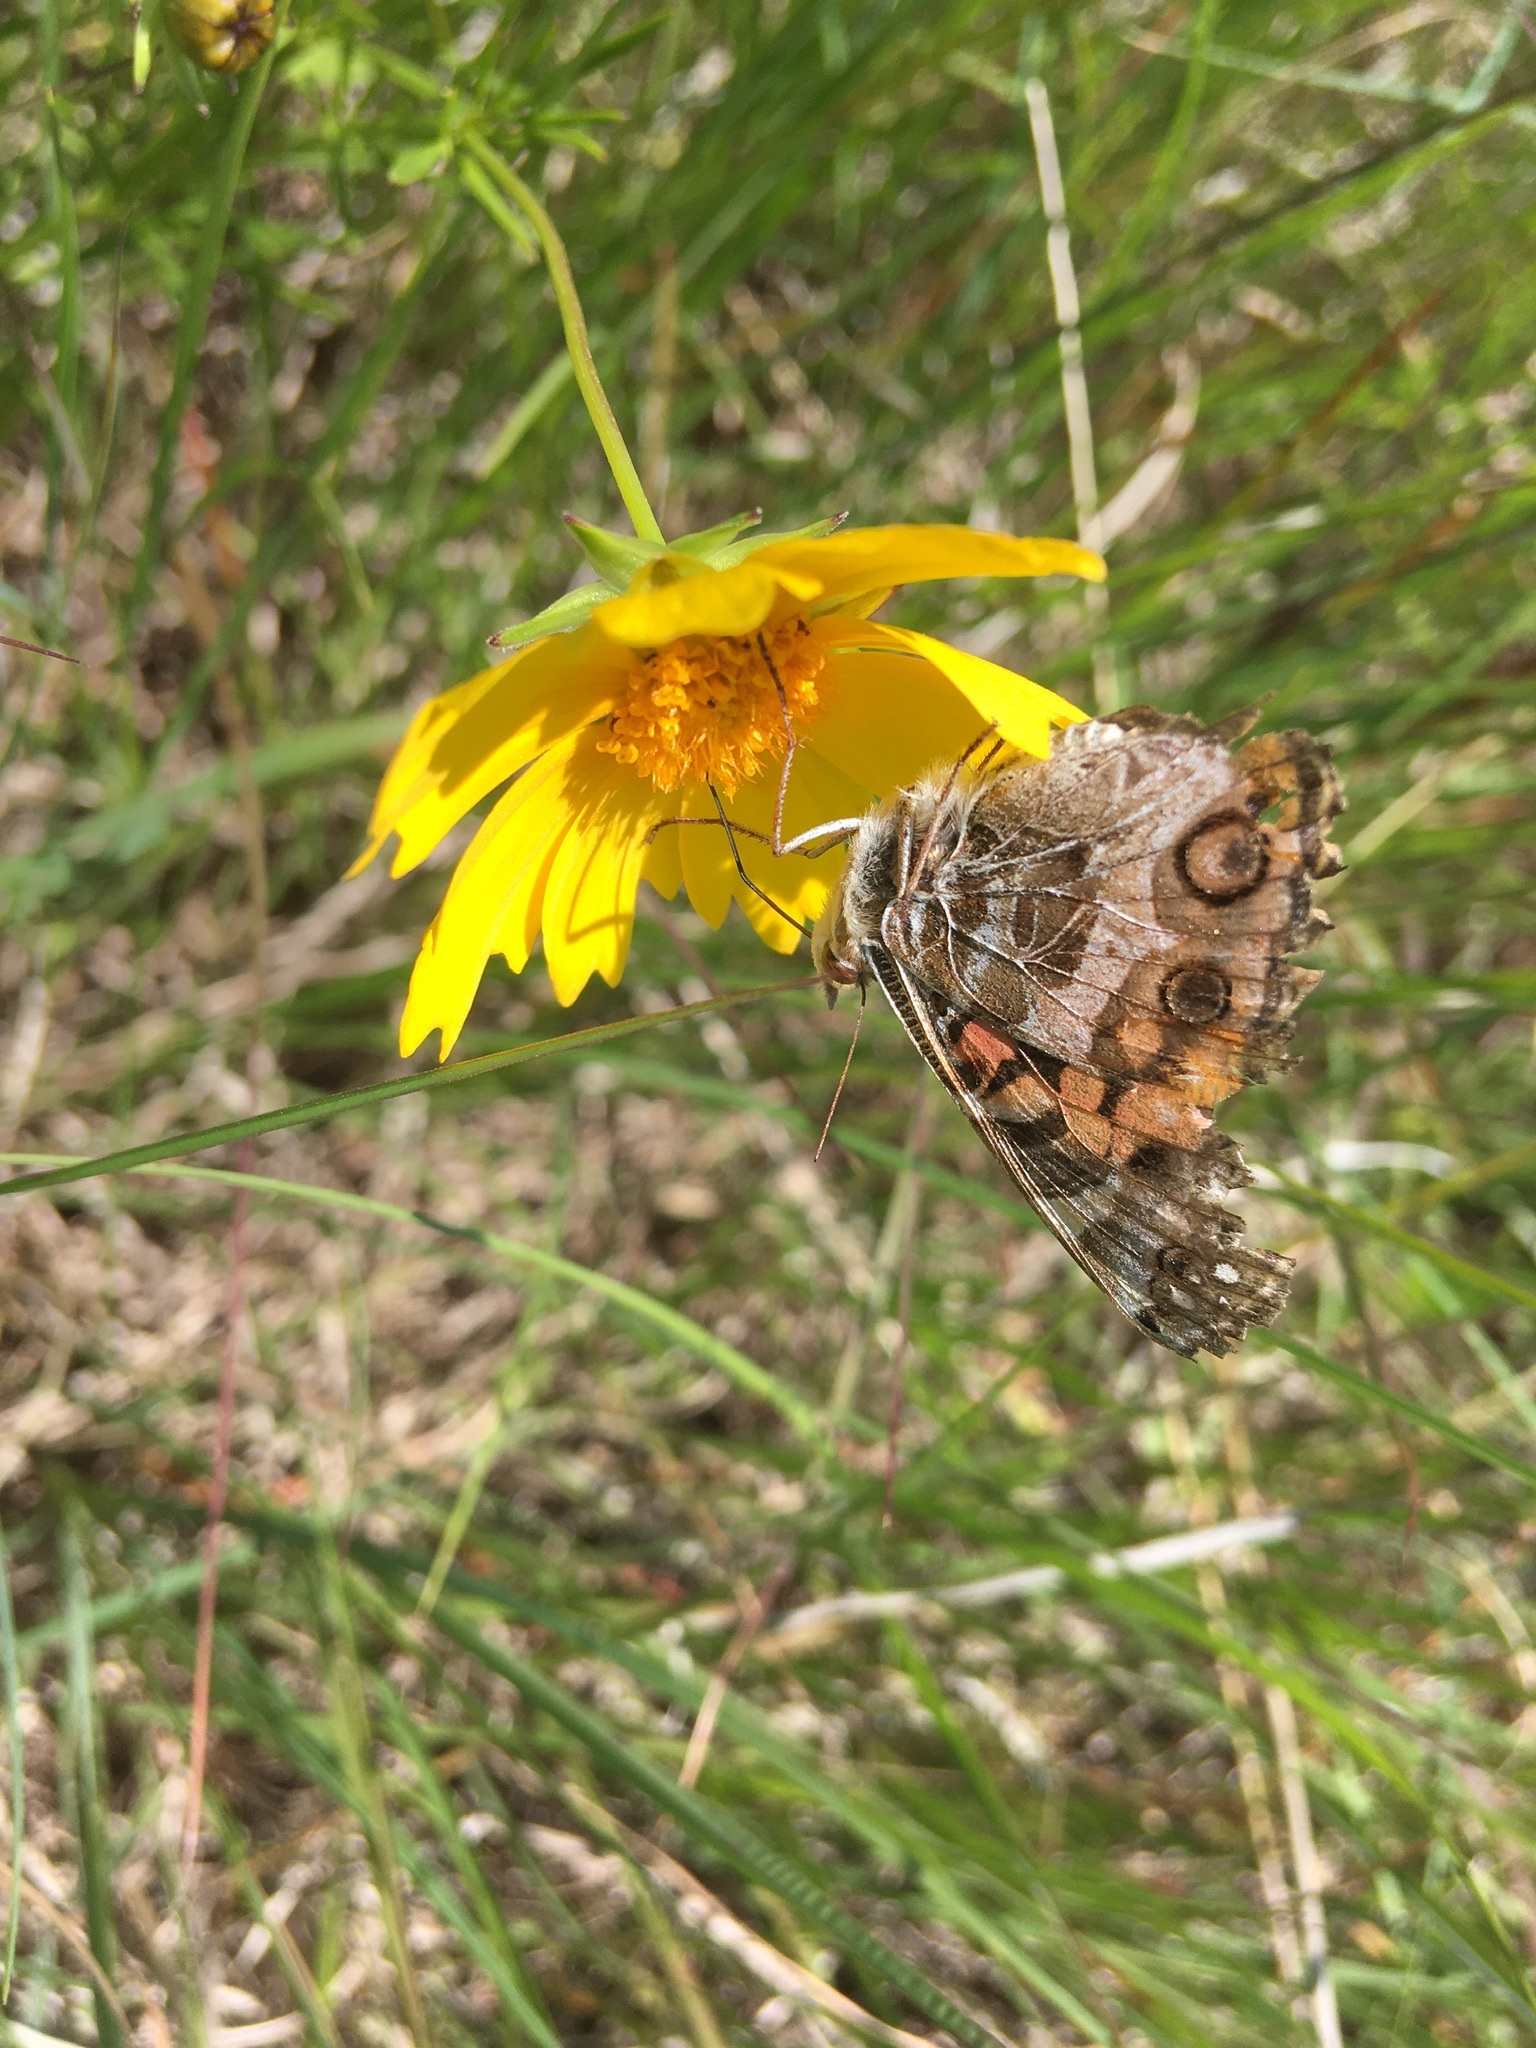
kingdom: Animalia
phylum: Arthropoda
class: Insecta
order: Lepidoptera
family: Nymphalidae
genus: Vanessa
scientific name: Vanessa virginiensis
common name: American lady
